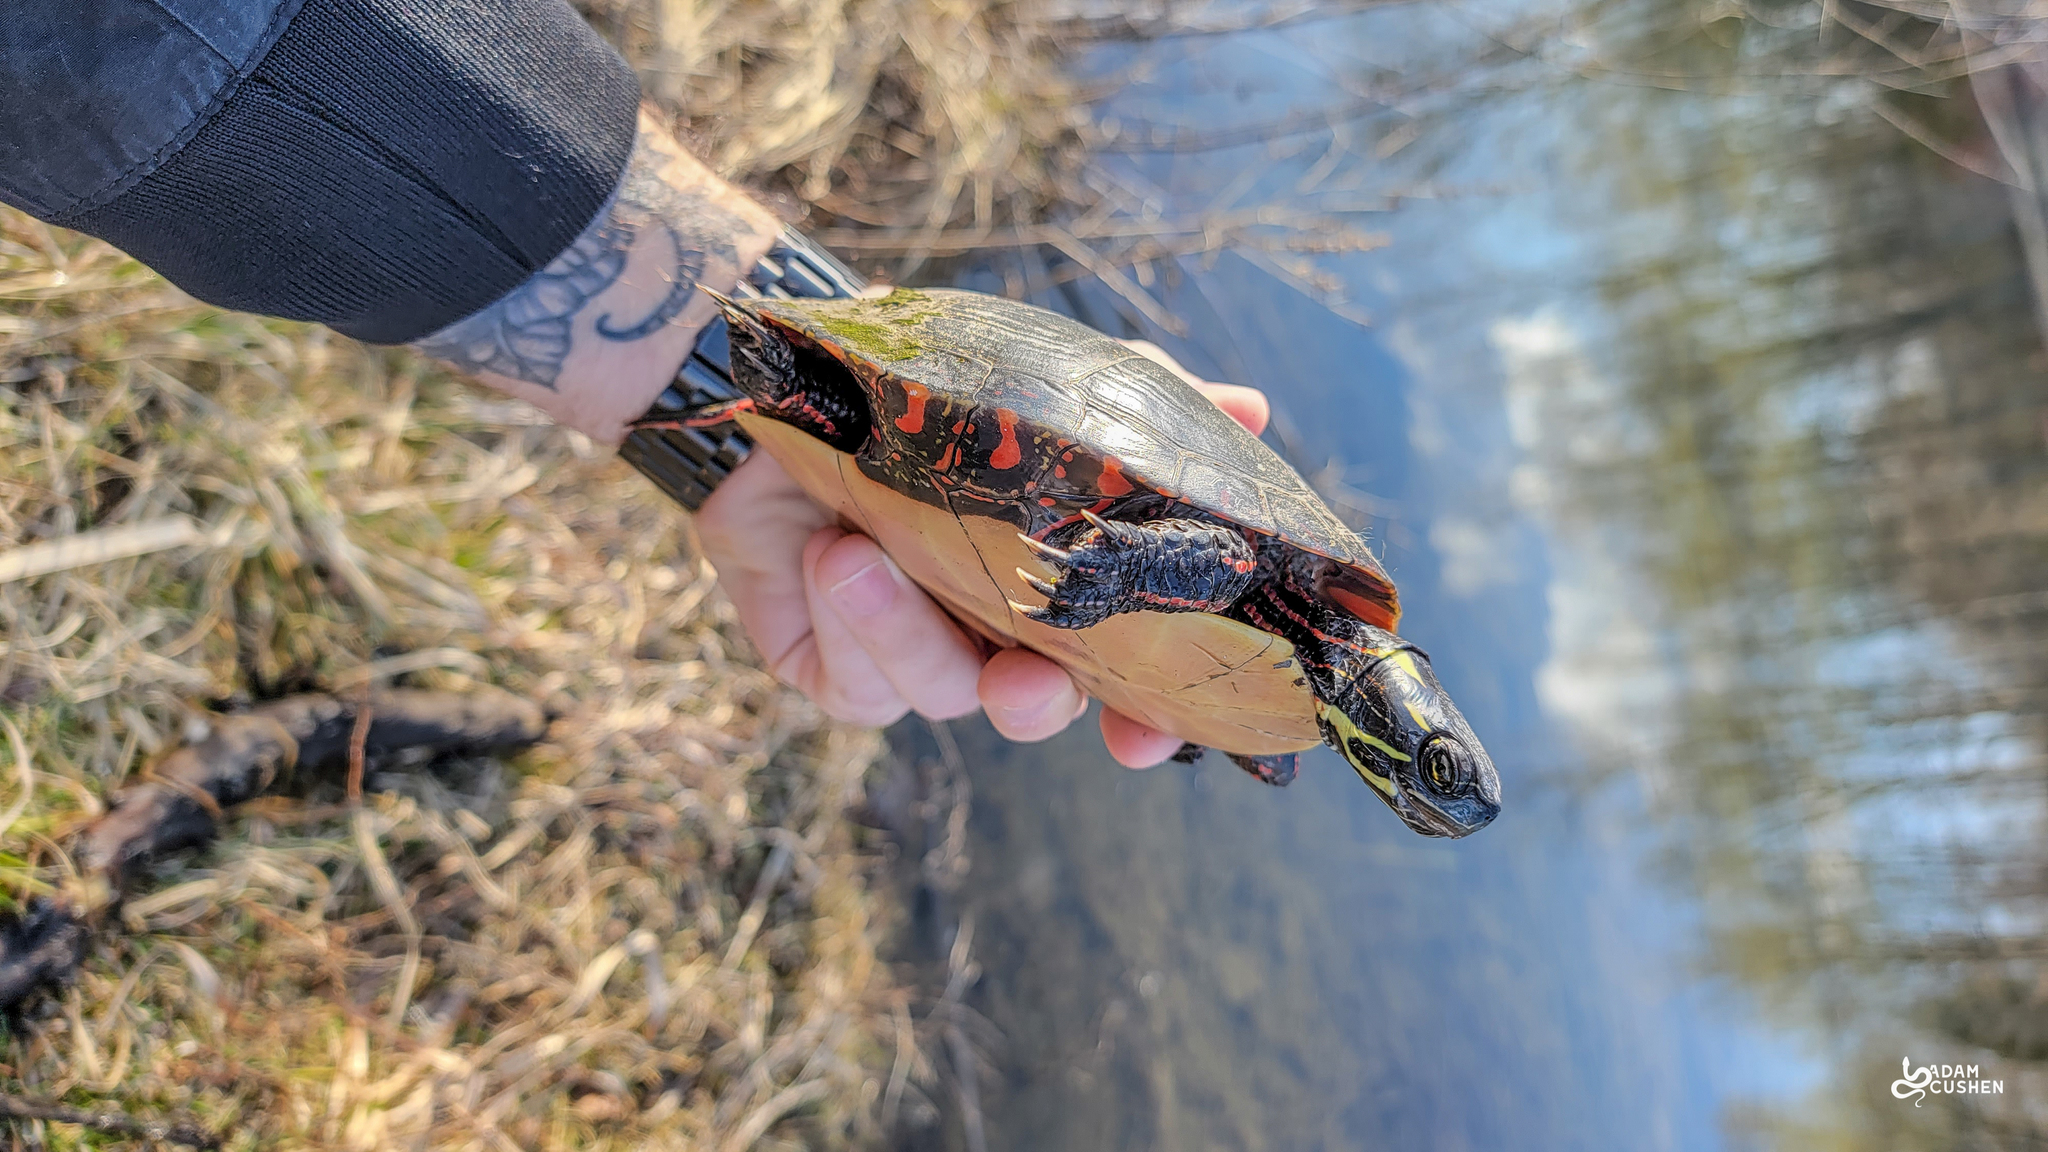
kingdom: Animalia
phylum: Chordata
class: Testudines
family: Emydidae
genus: Chrysemys
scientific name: Chrysemys picta
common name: Painted turtle
